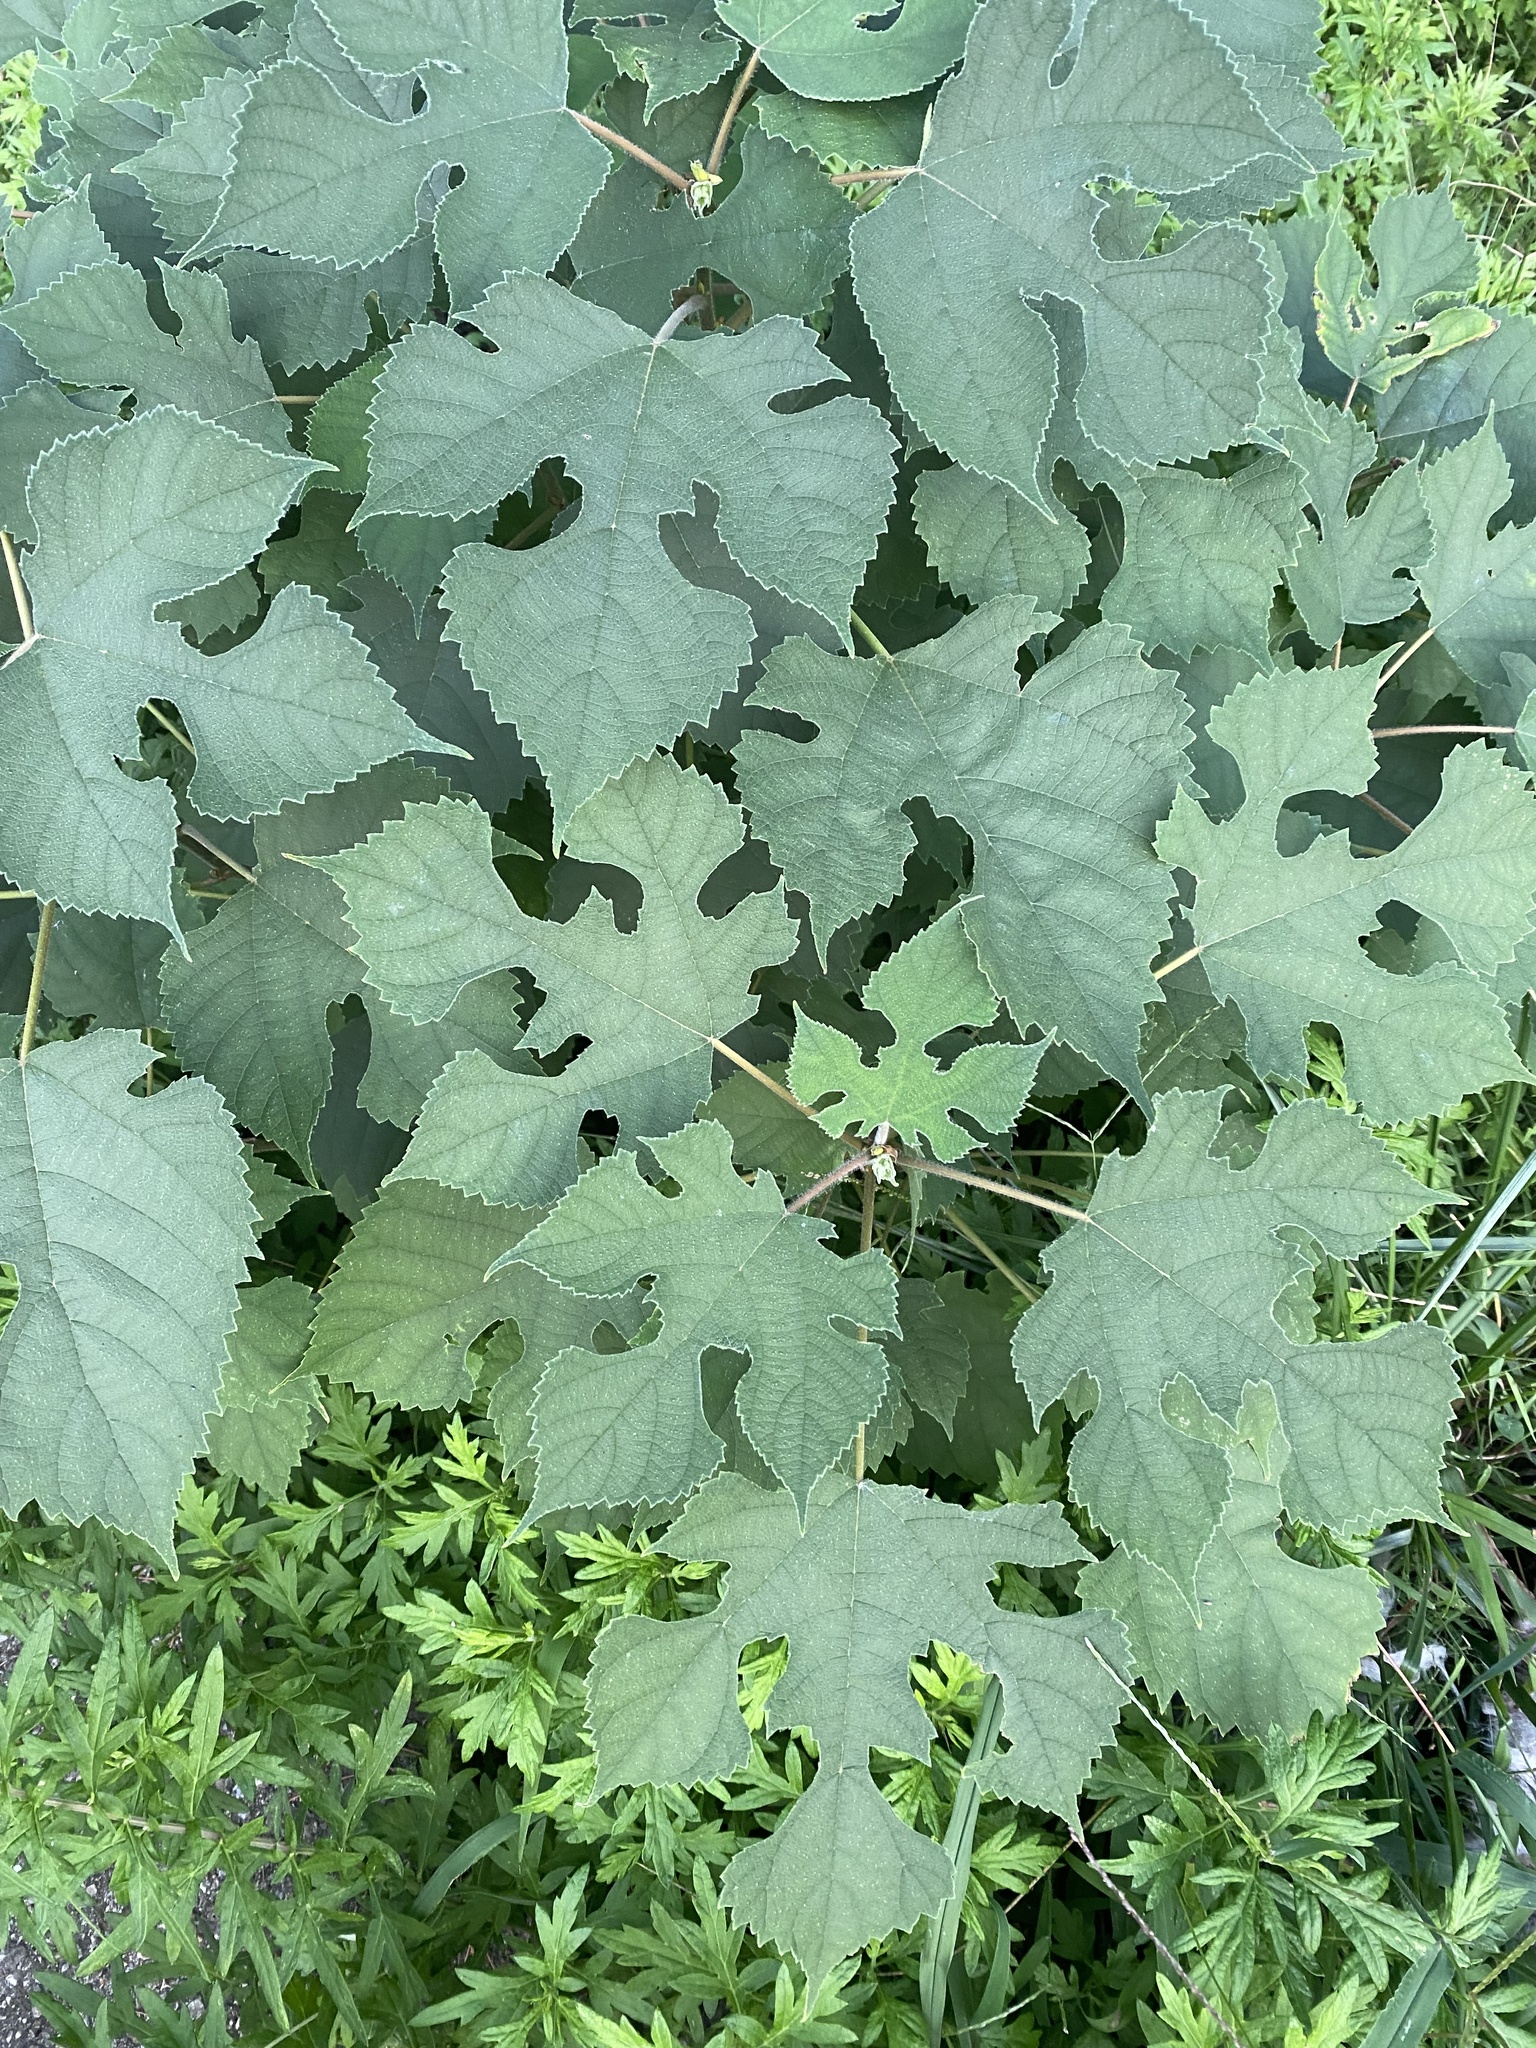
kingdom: Plantae
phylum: Tracheophyta
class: Magnoliopsida
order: Rosales
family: Moraceae
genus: Broussonetia
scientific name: Broussonetia papyrifera
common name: Paper mulberry
